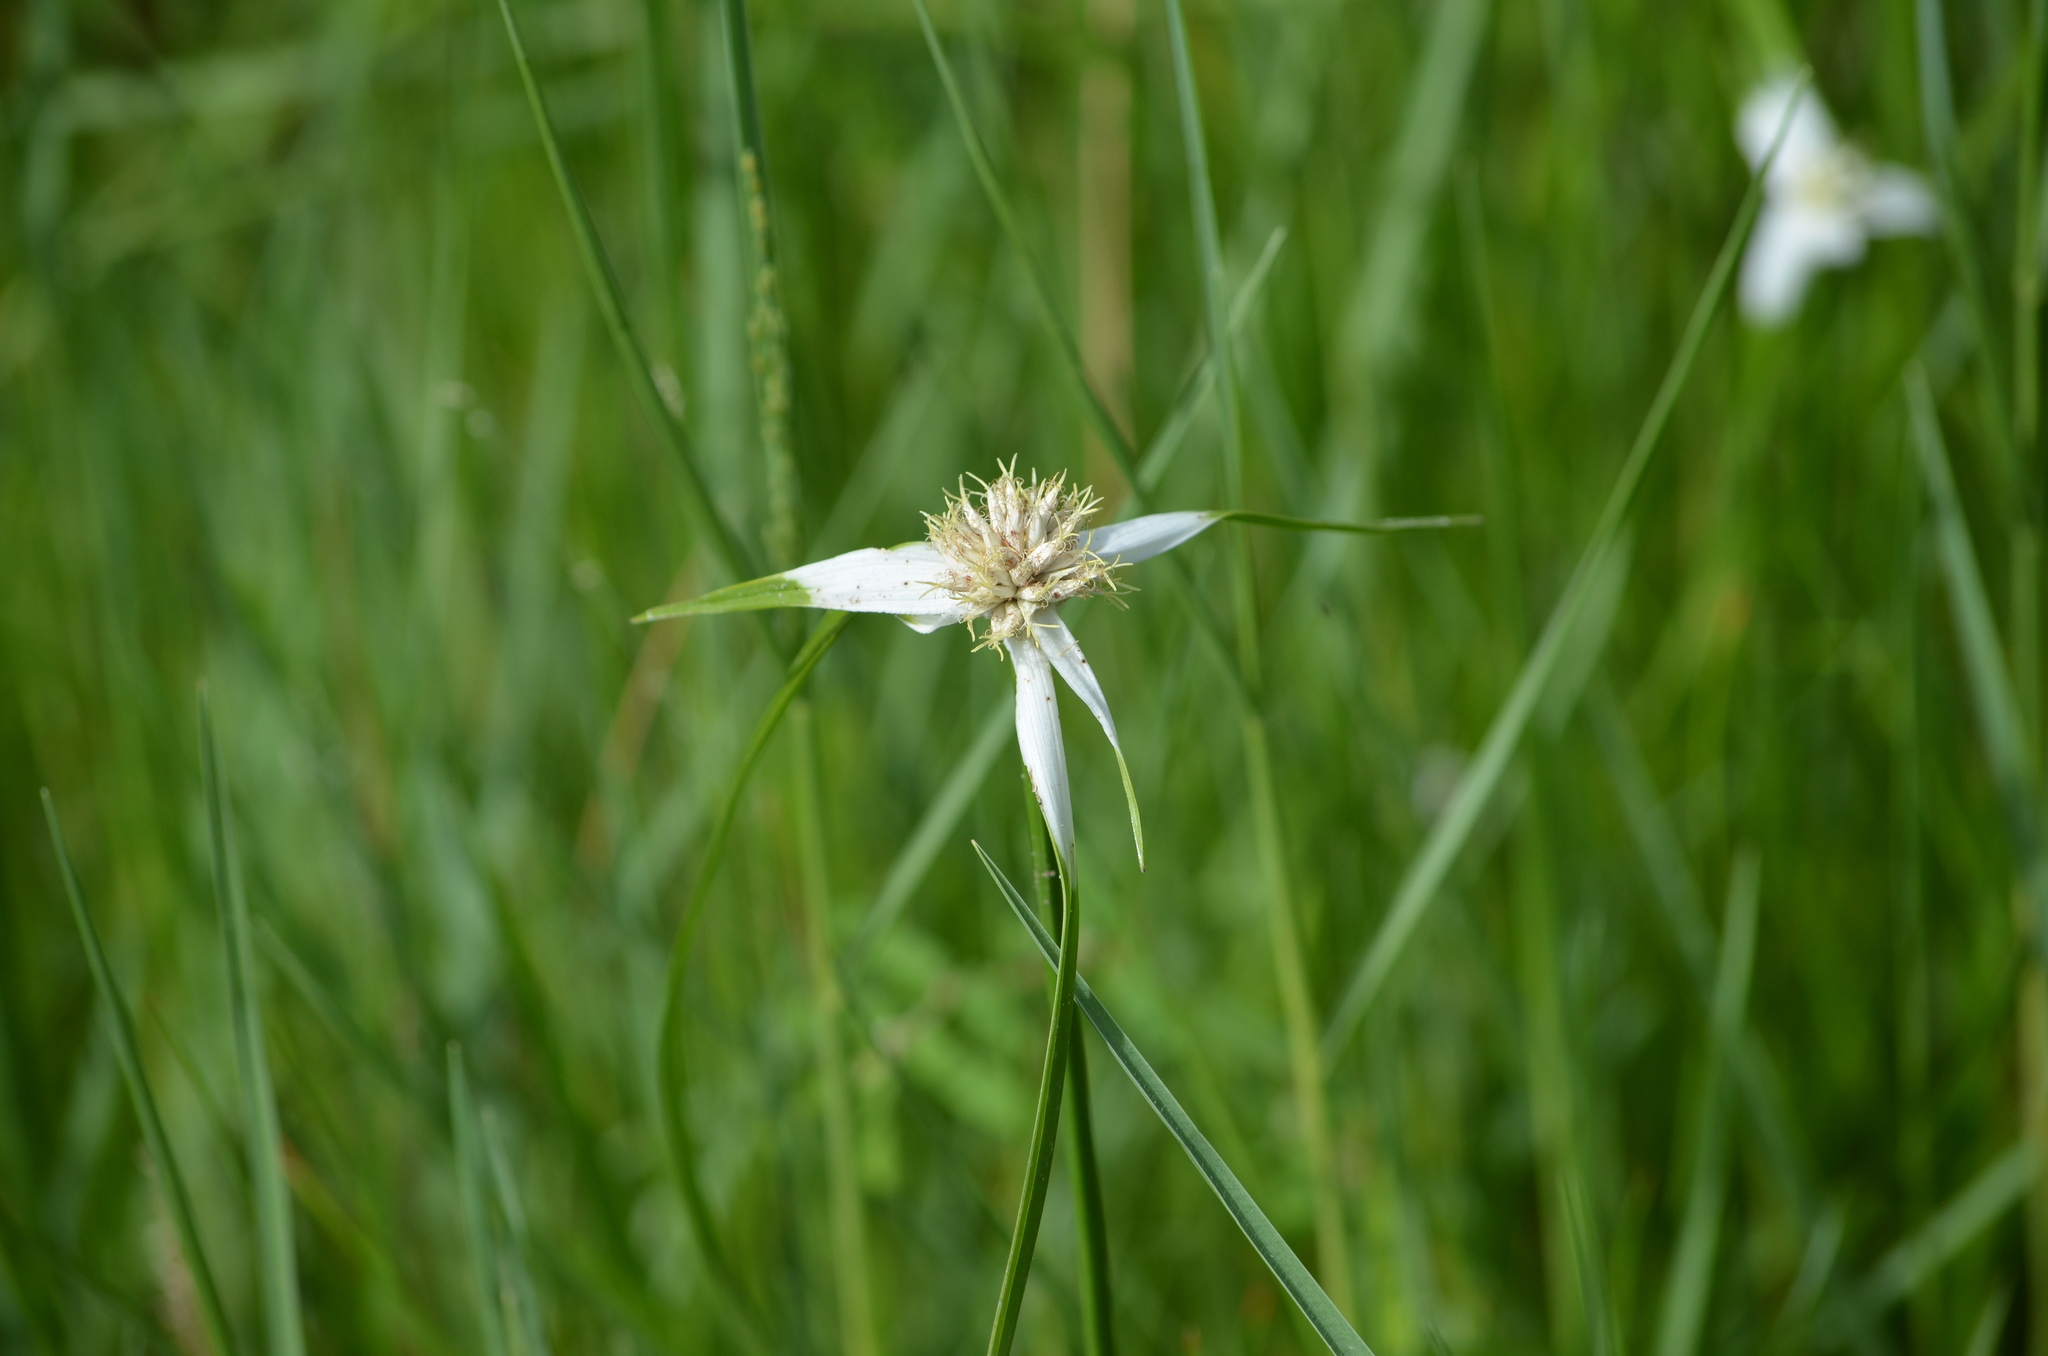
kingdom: Plantae
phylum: Tracheophyta
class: Liliopsida
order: Poales
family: Cyperaceae
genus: Rhynchospora
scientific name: Rhynchospora colorata
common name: Star sedge
